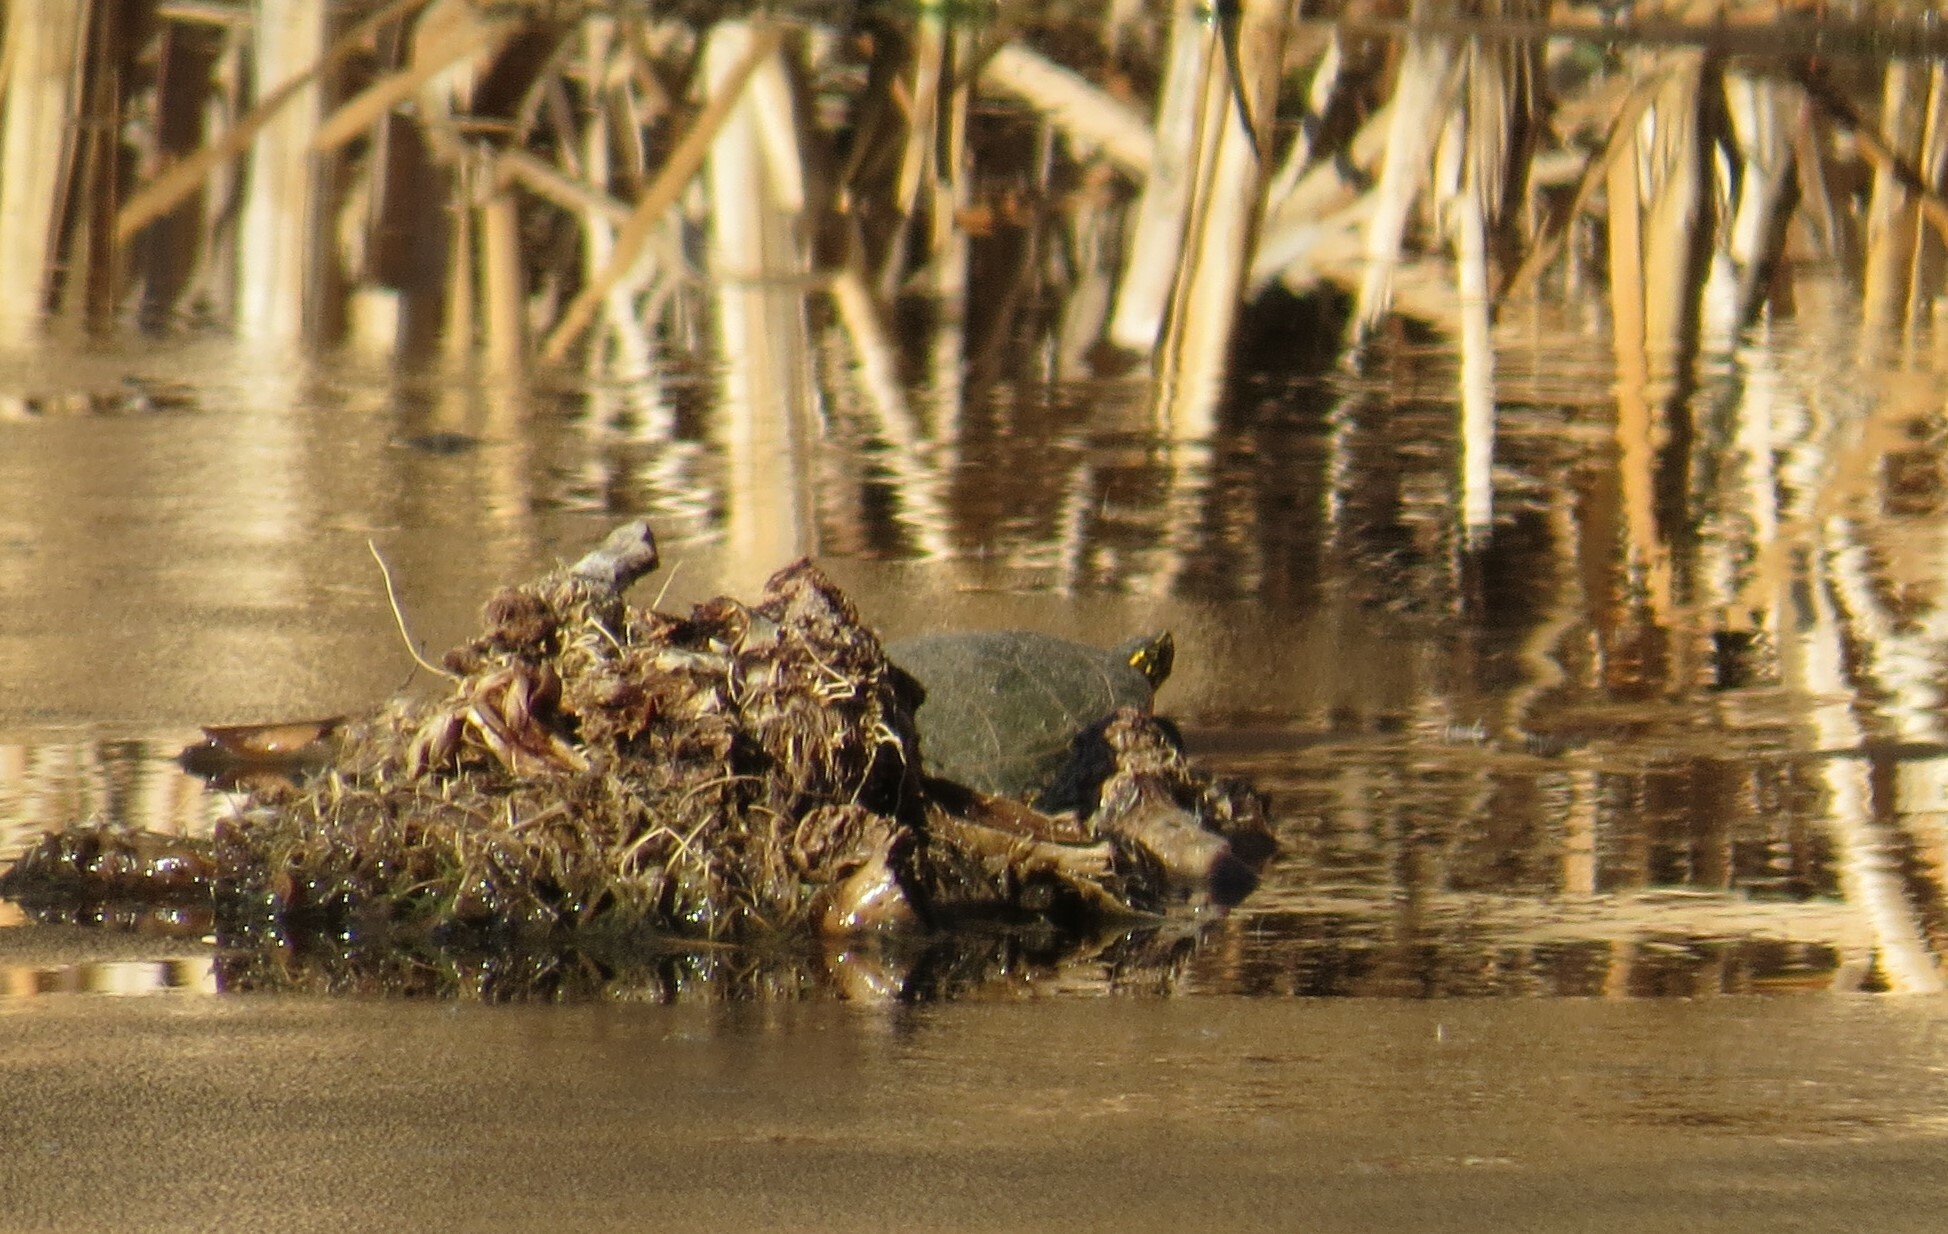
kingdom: Animalia
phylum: Chordata
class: Testudines
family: Emydidae
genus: Chrysemys
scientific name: Chrysemys picta
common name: Painted turtle
